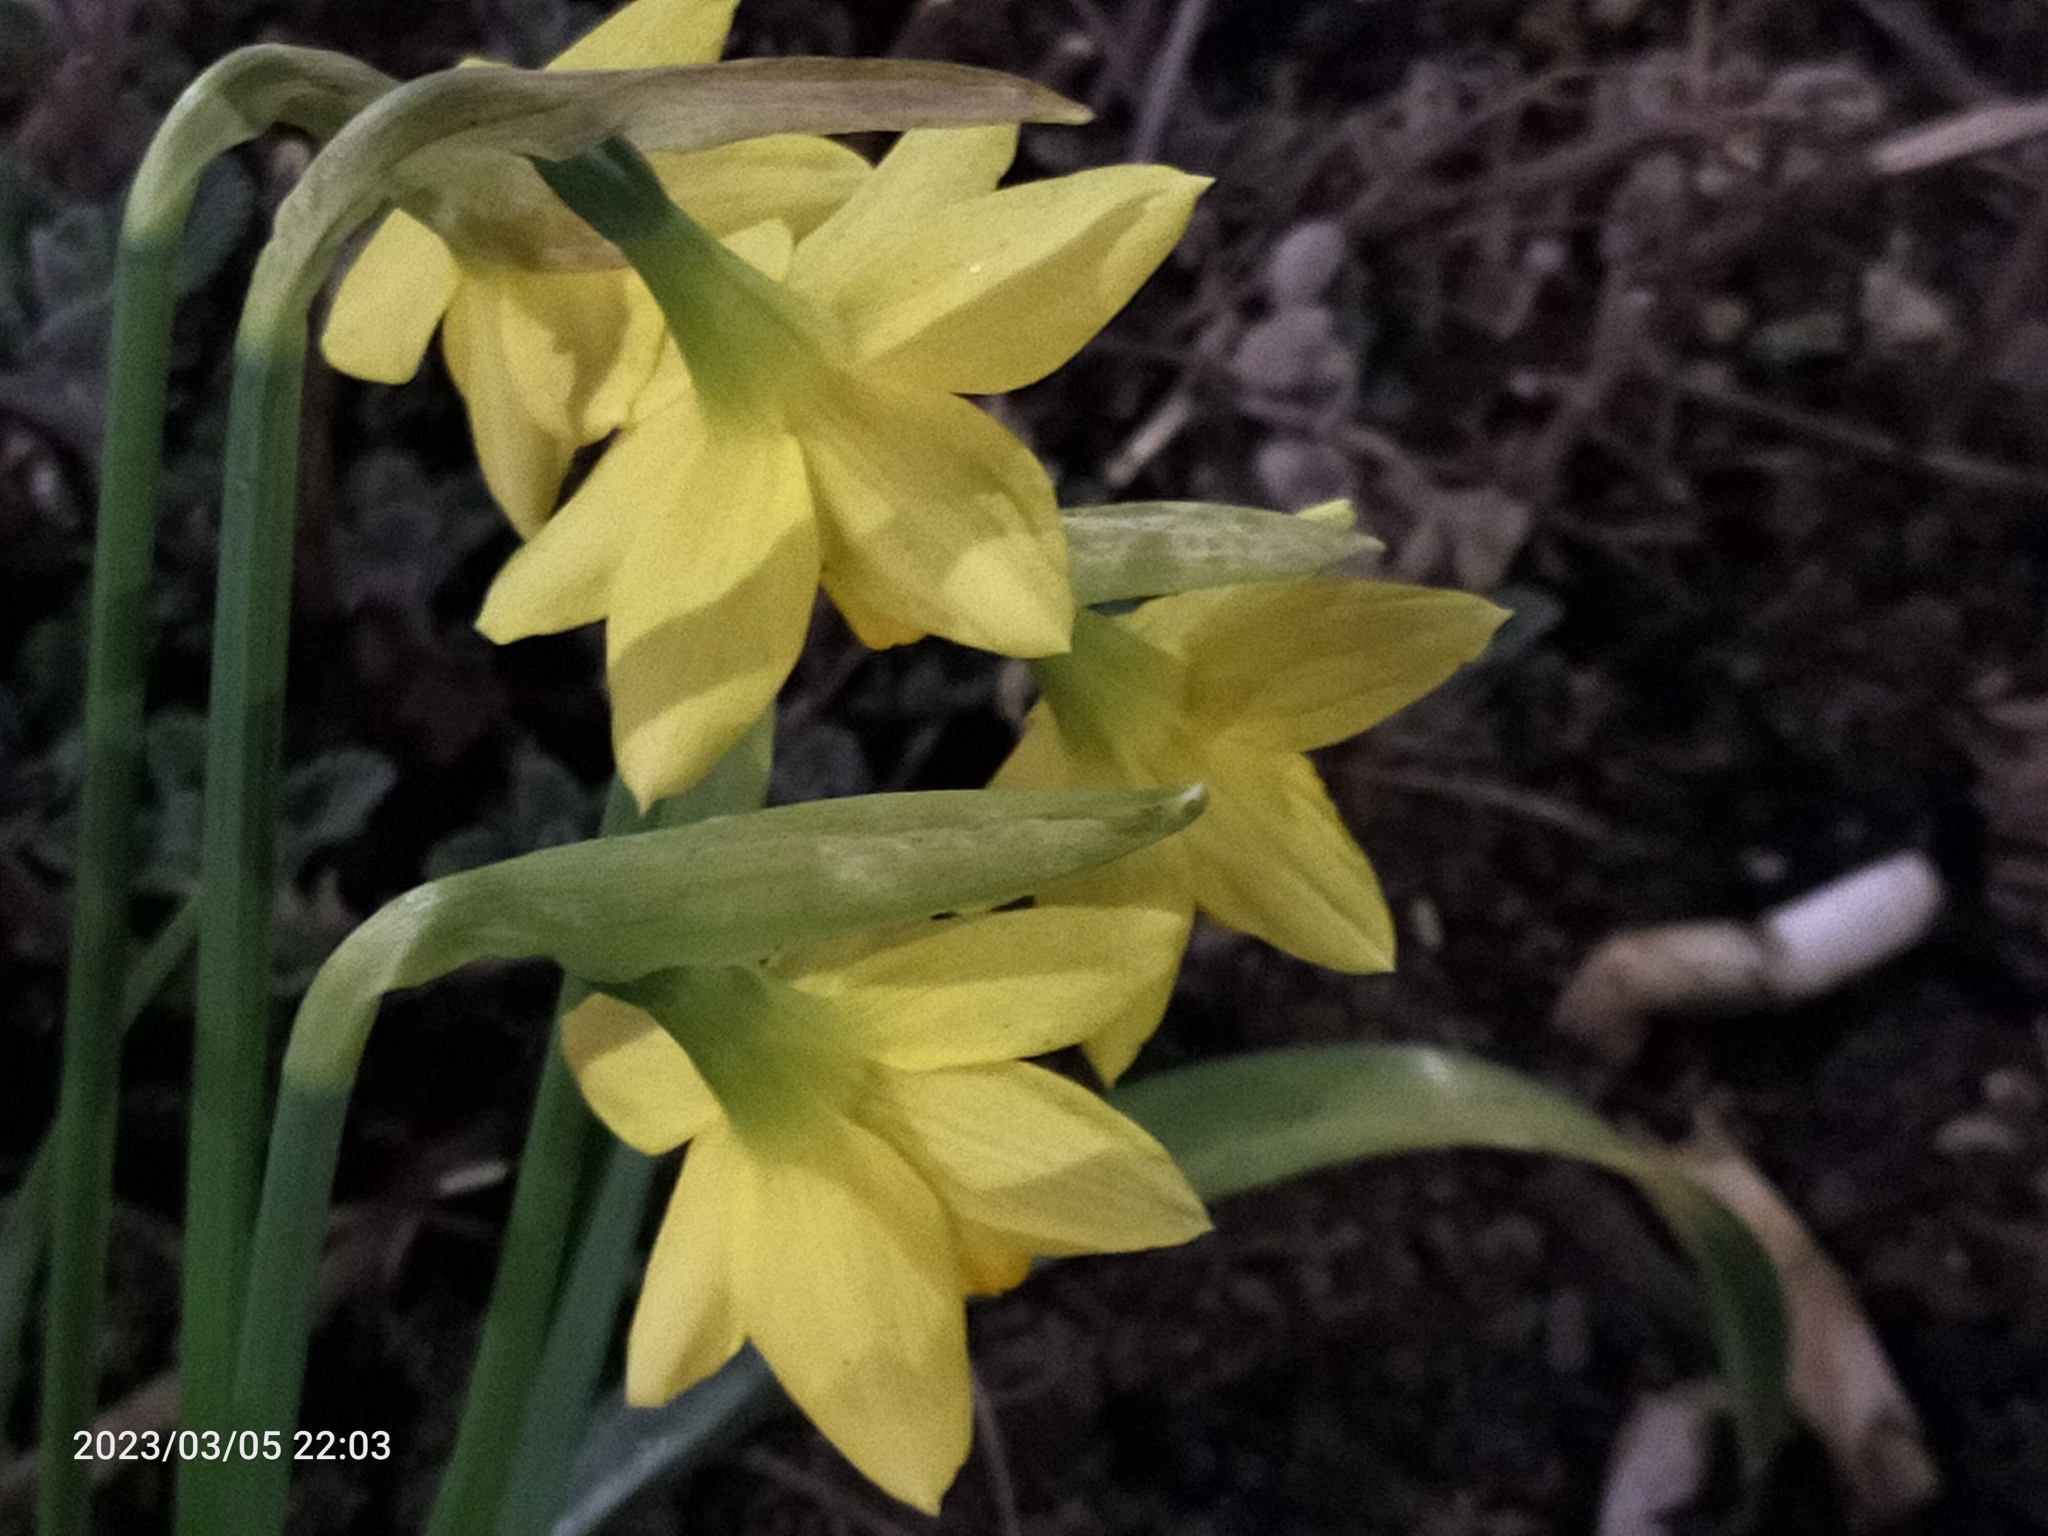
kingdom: Plantae
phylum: Tracheophyta
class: Liliopsida
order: Asparagales
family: Amaryllidaceae
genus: Narcissus
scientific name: Narcissus
